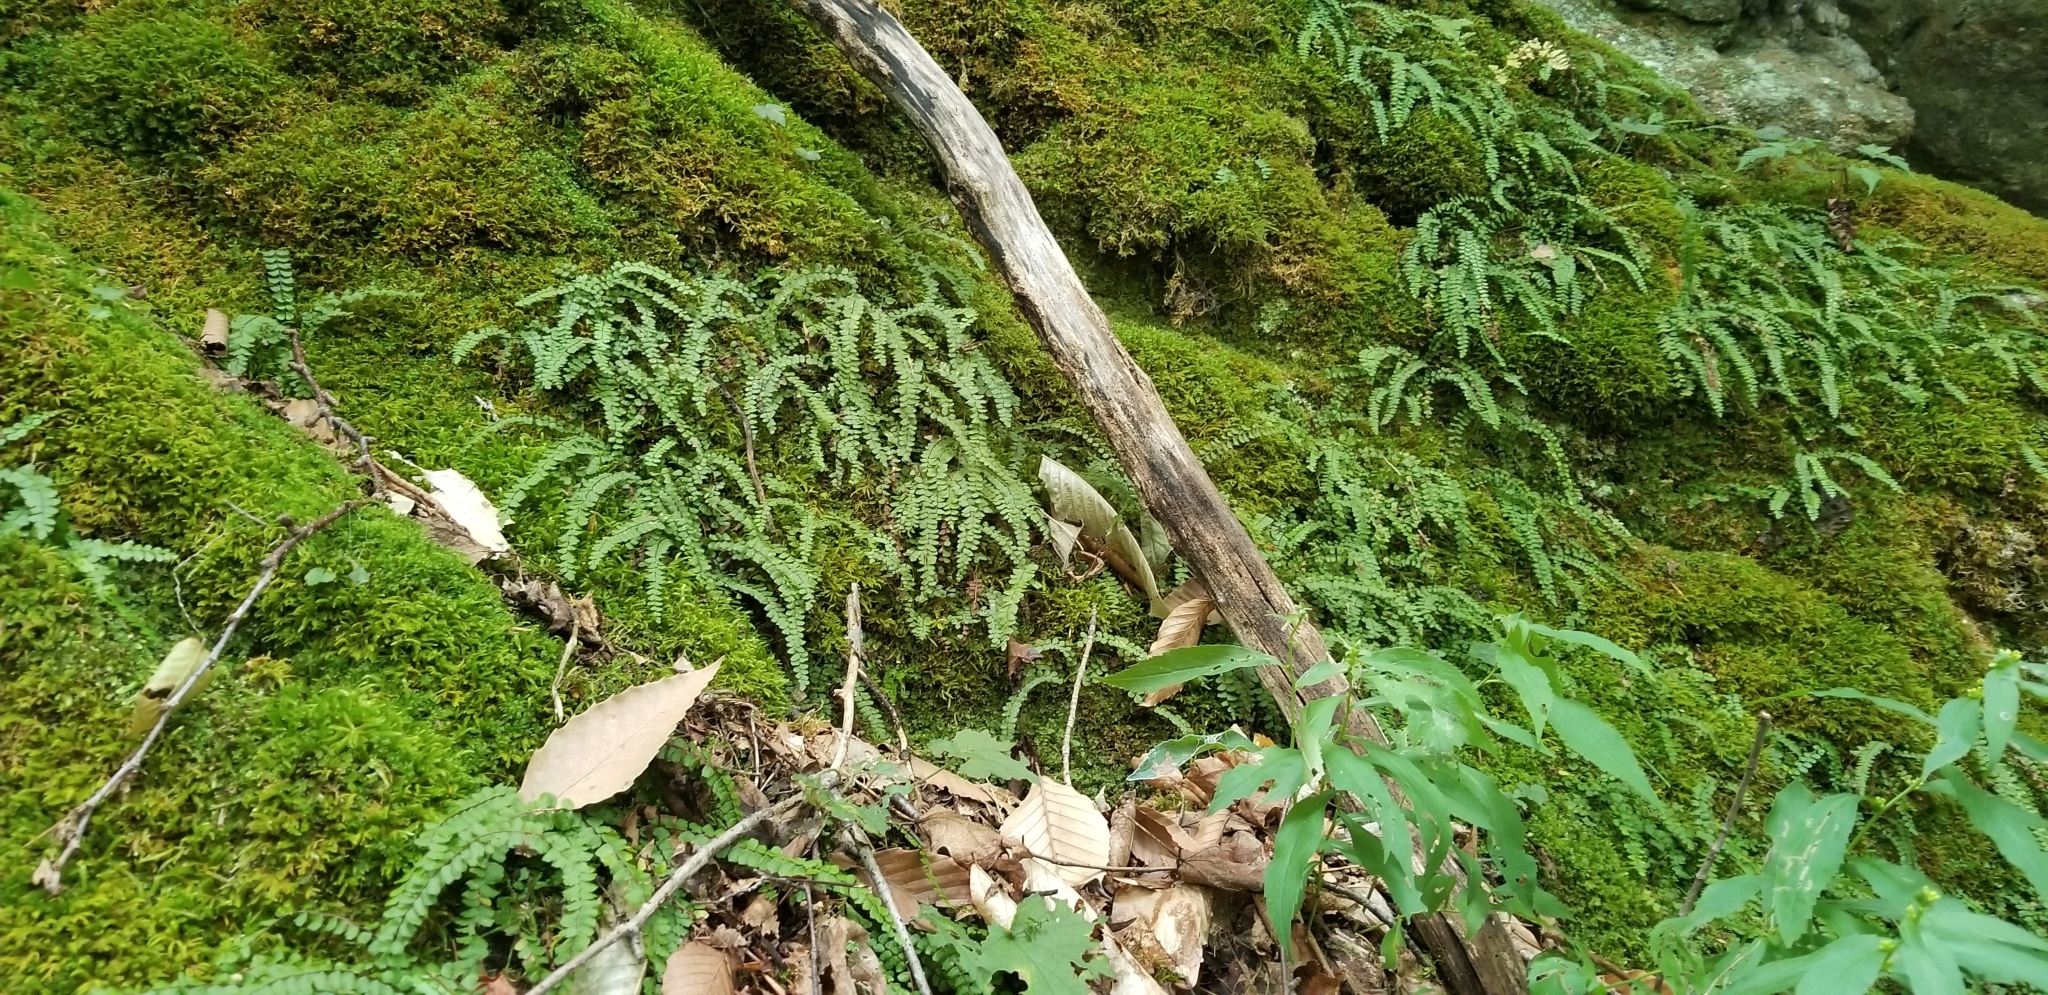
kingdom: Plantae
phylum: Tracheophyta
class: Polypodiopsida
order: Polypodiales
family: Aspleniaceae
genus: Asplenium
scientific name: Asplenium trichomanes
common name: Maidenhair spleenwort
